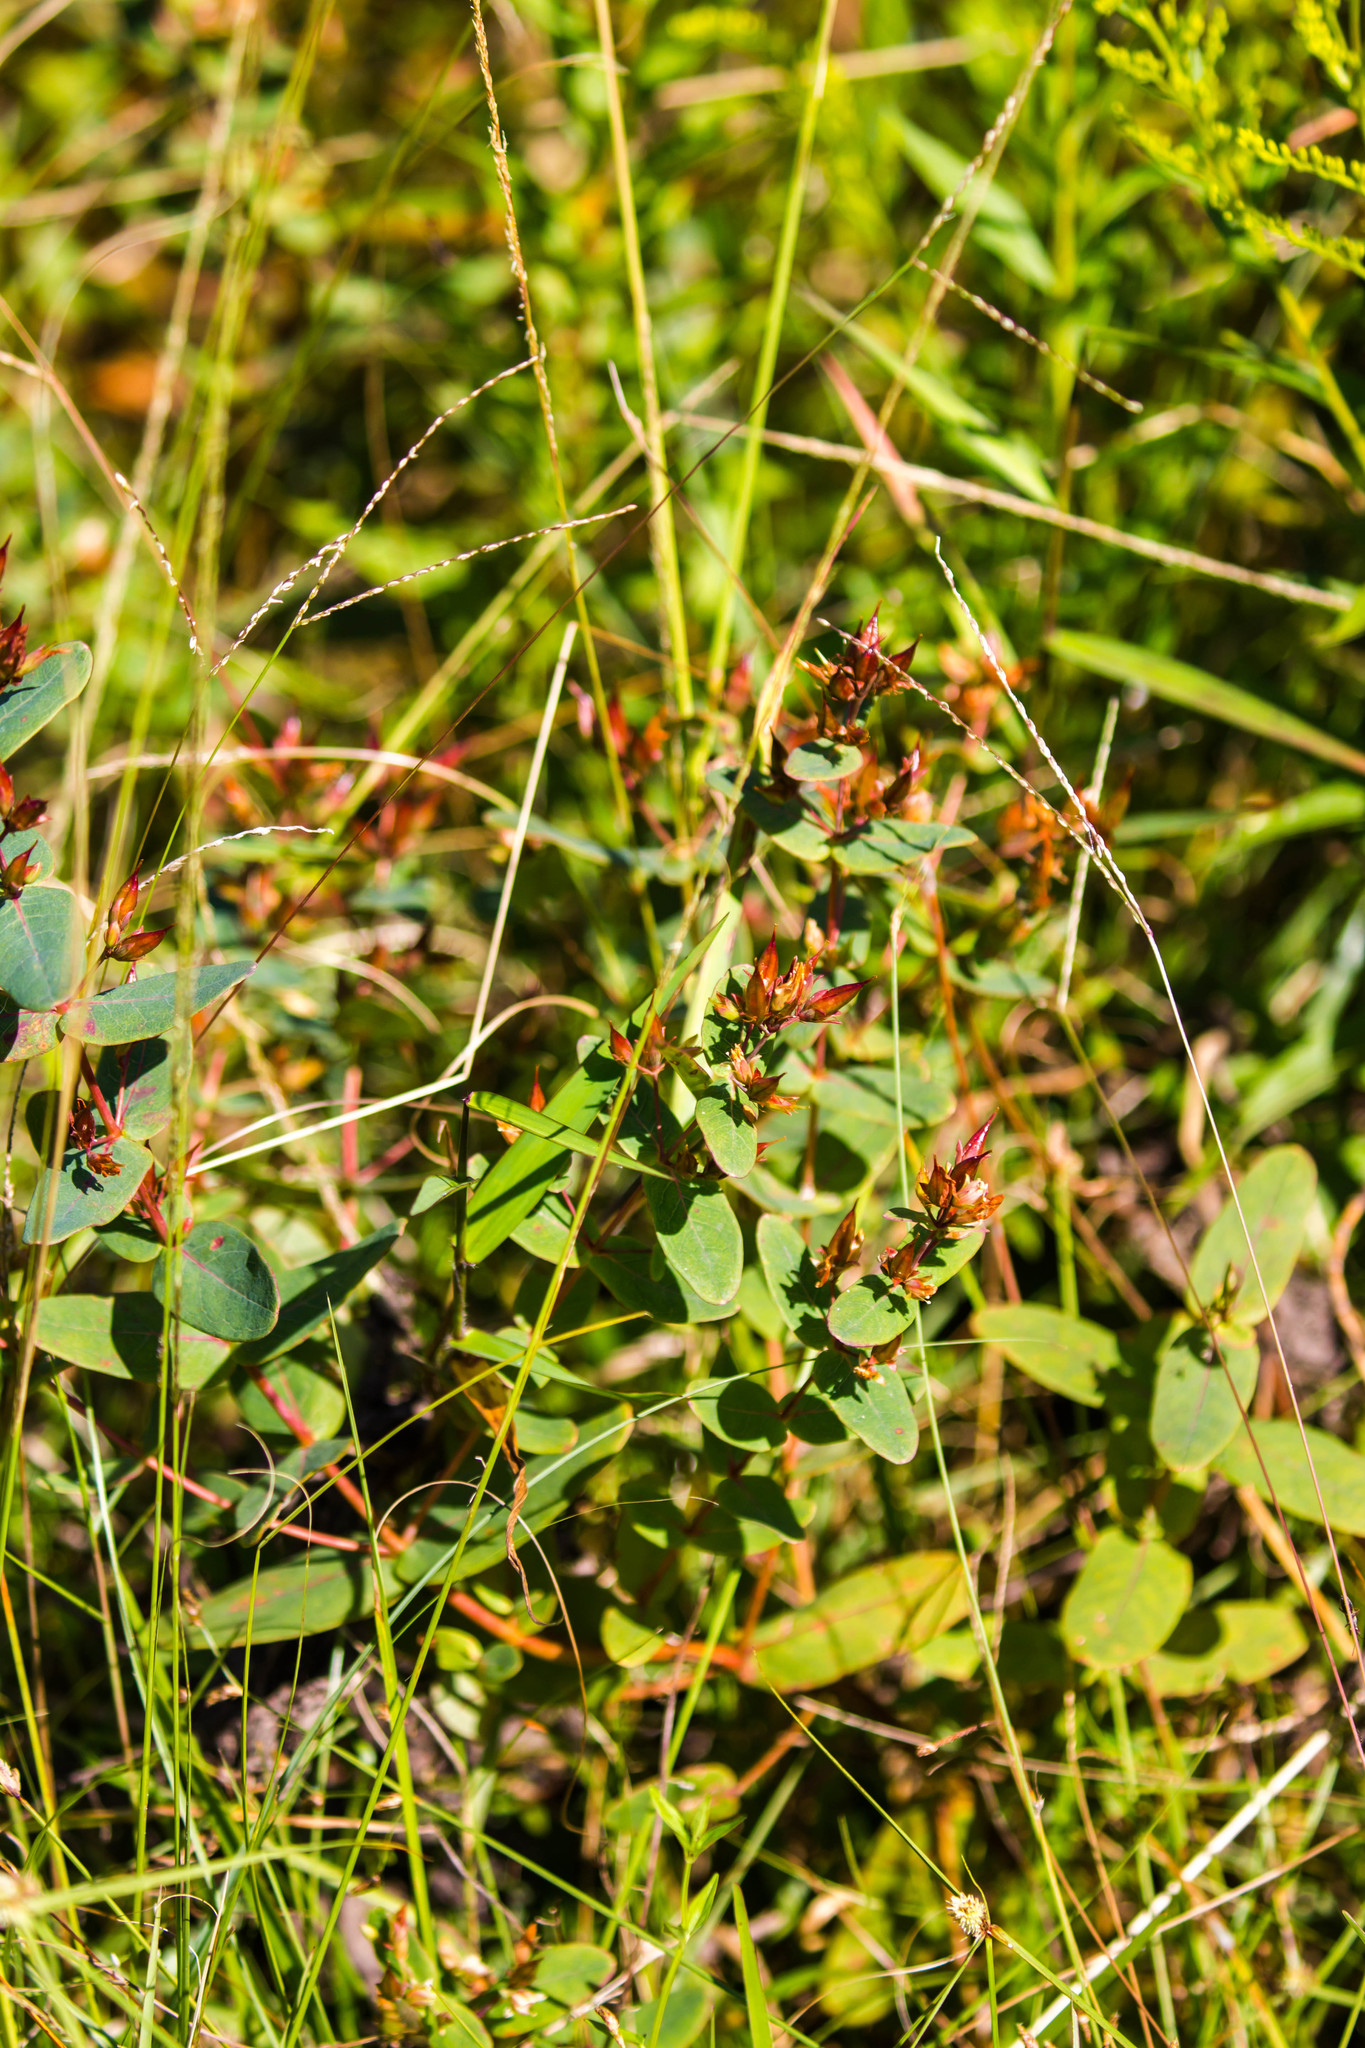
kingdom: Plantae
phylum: Tracheophyta
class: Magnoliopsida
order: Malpighiales
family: Hypericaceae
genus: Triadenum
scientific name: Triadenum virginicum
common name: Marsh st. john's-wort
